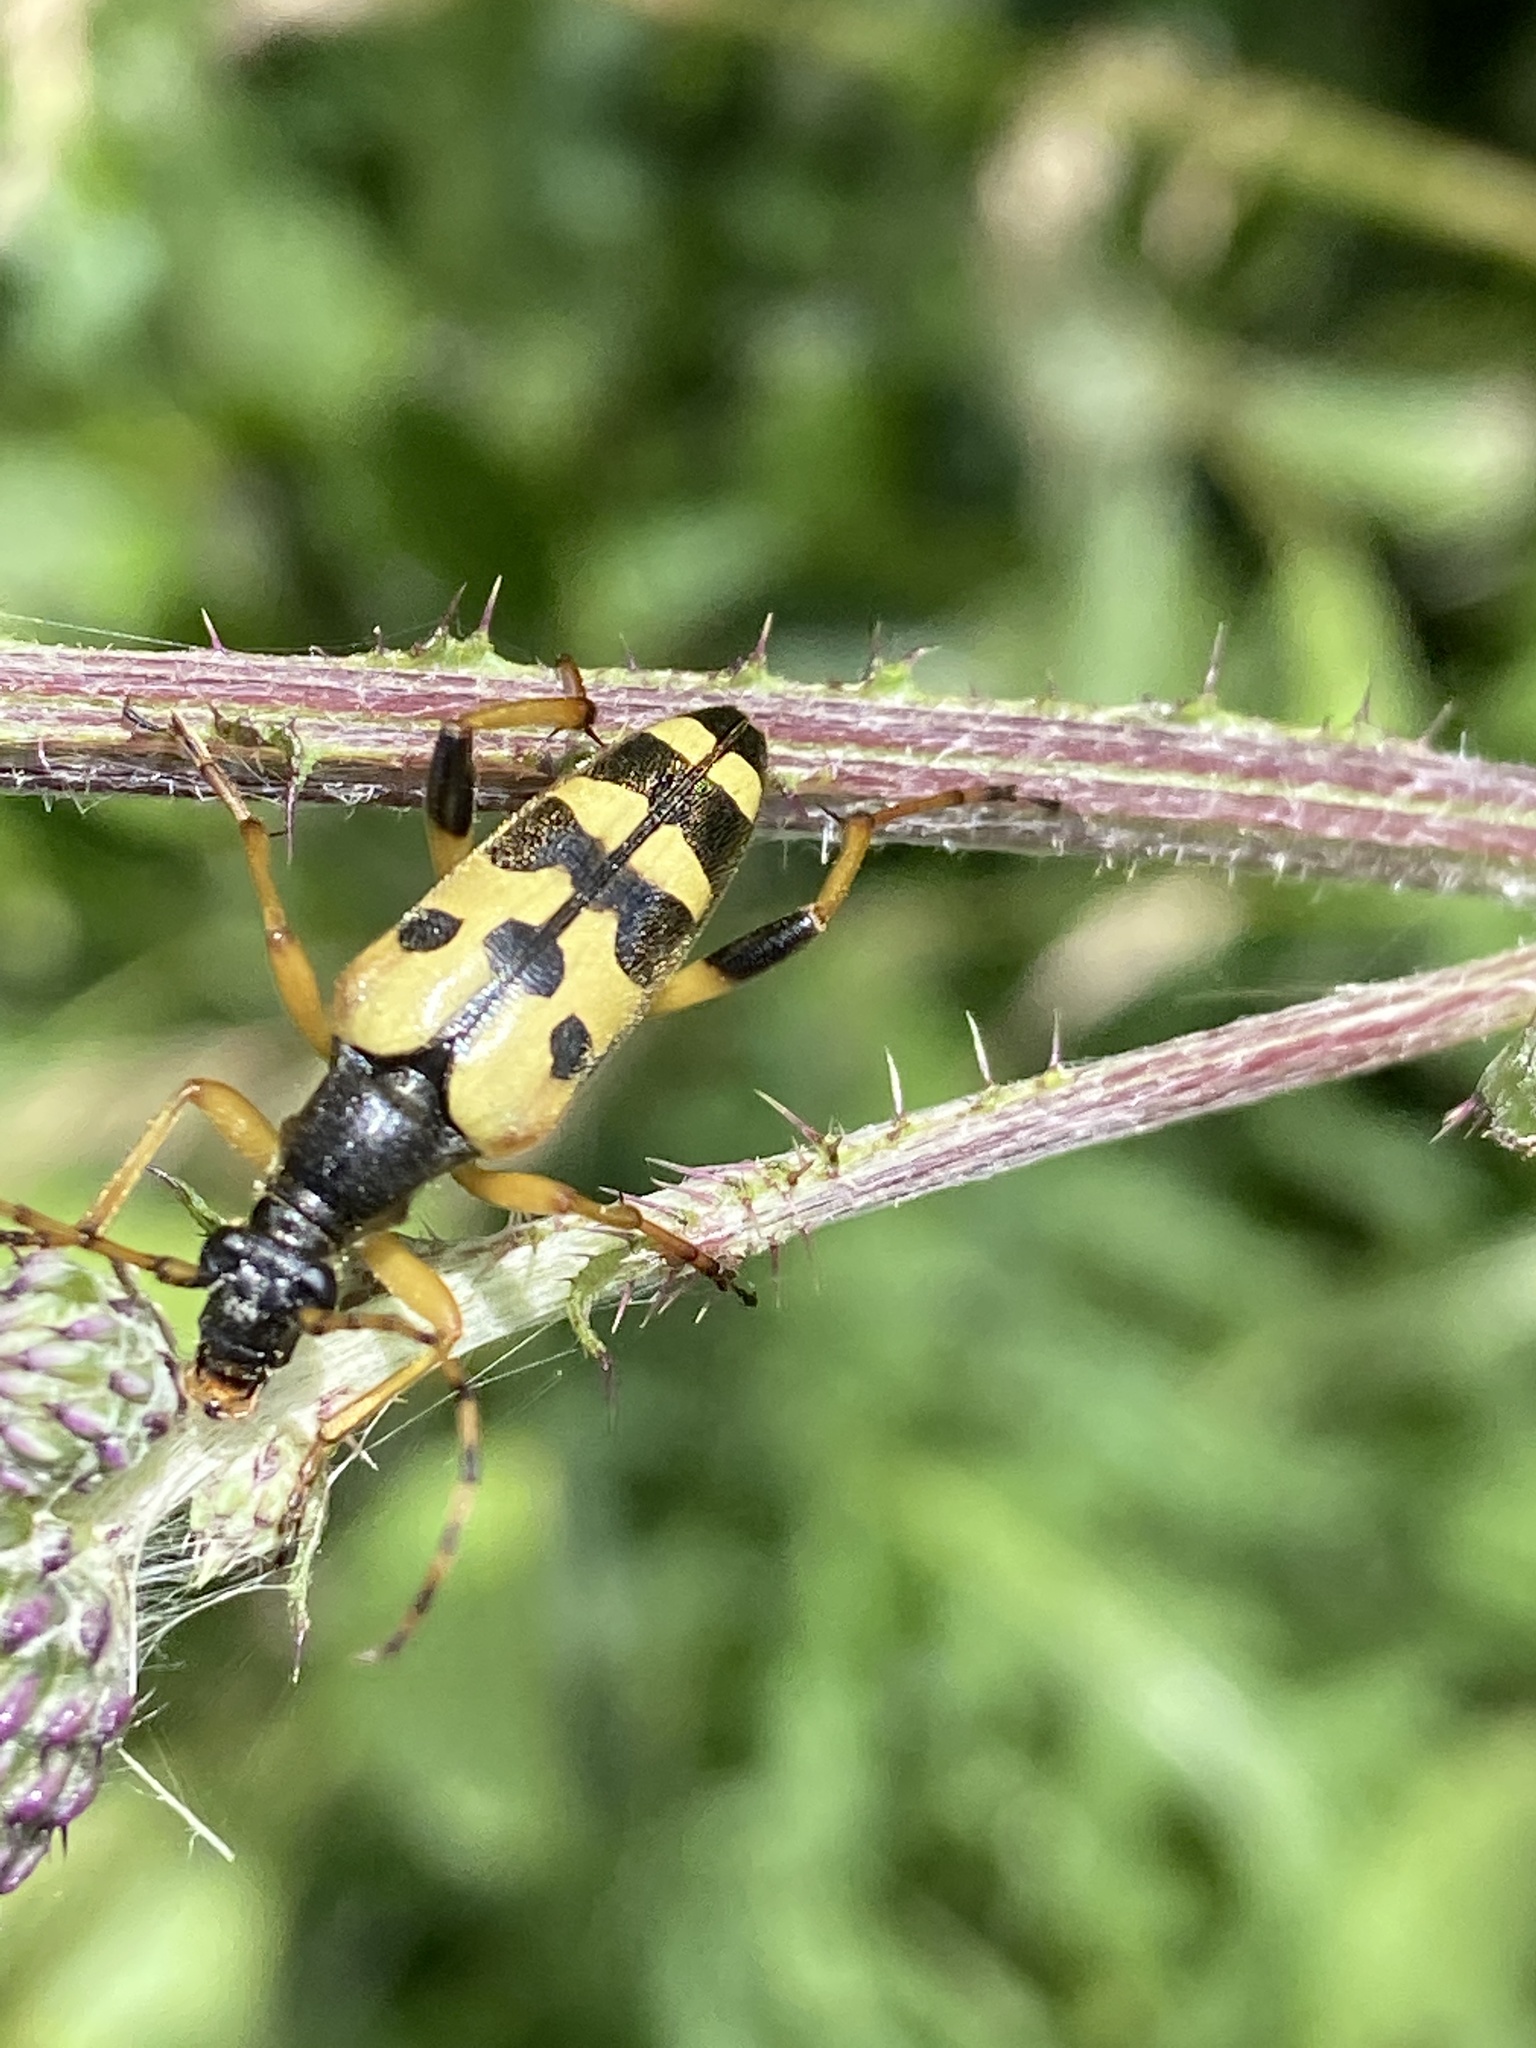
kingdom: Animalia
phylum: Arthropoda
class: Insecta
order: Coleoptera
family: Cerambycidae
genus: Rutpela
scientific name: Rutpela maculata
